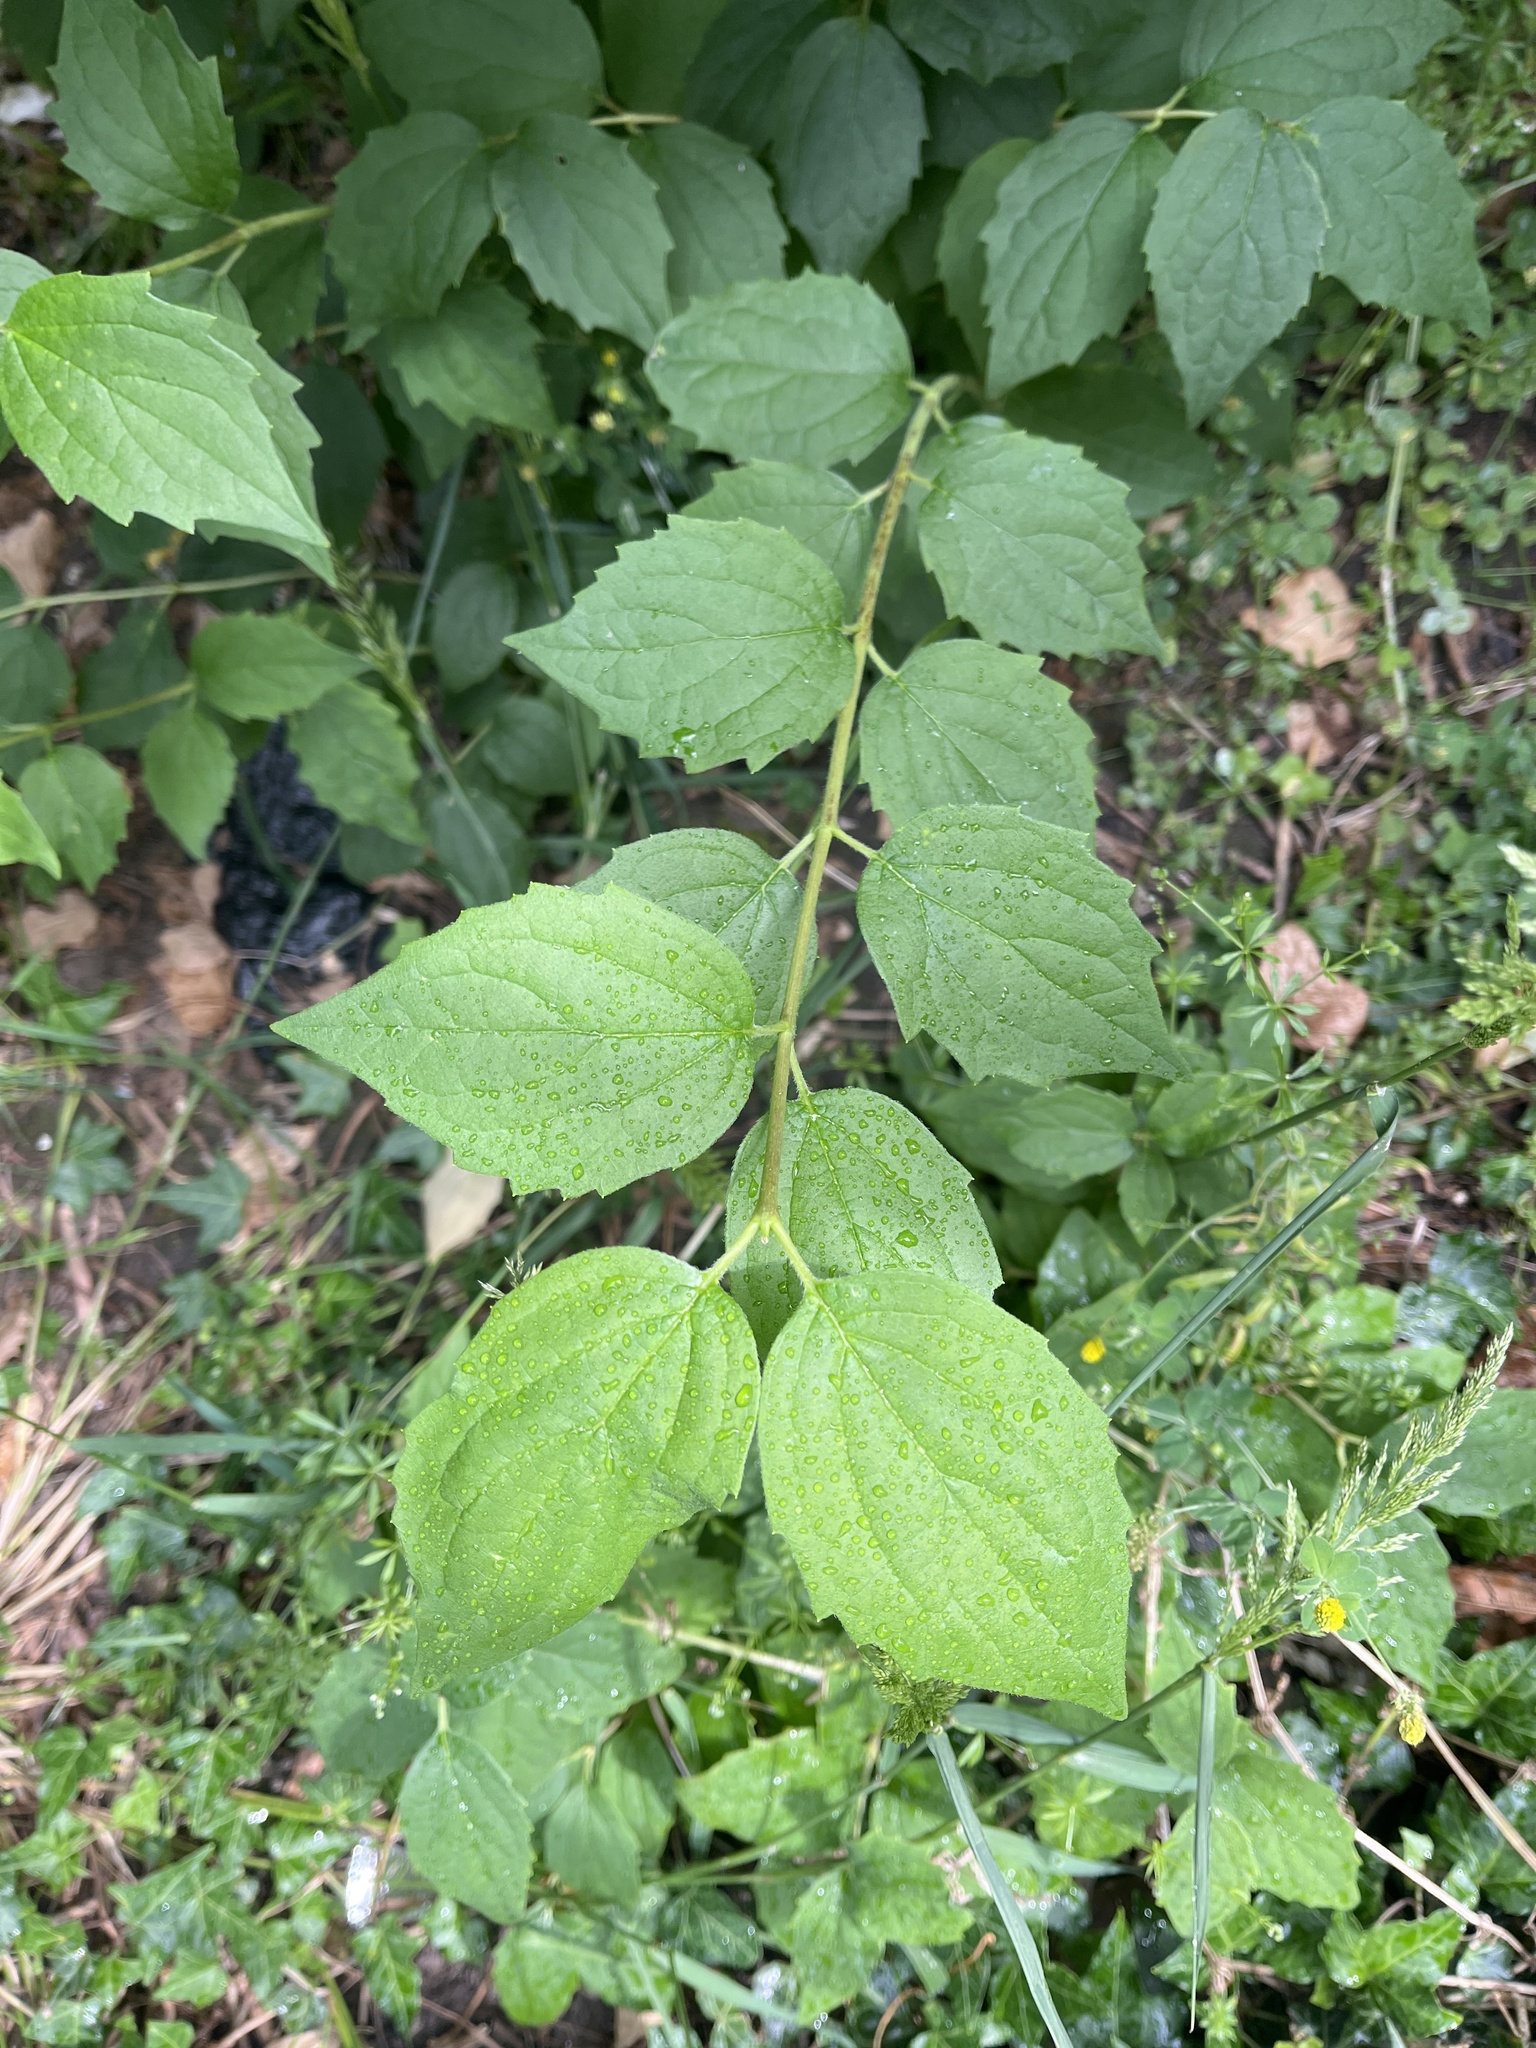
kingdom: Plantae
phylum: Tracheophyta
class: Magnoliopsida
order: Cornales
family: Hydrangeaceae
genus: Philadelphus
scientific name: Philadelphus coronarius
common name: Mock orange
